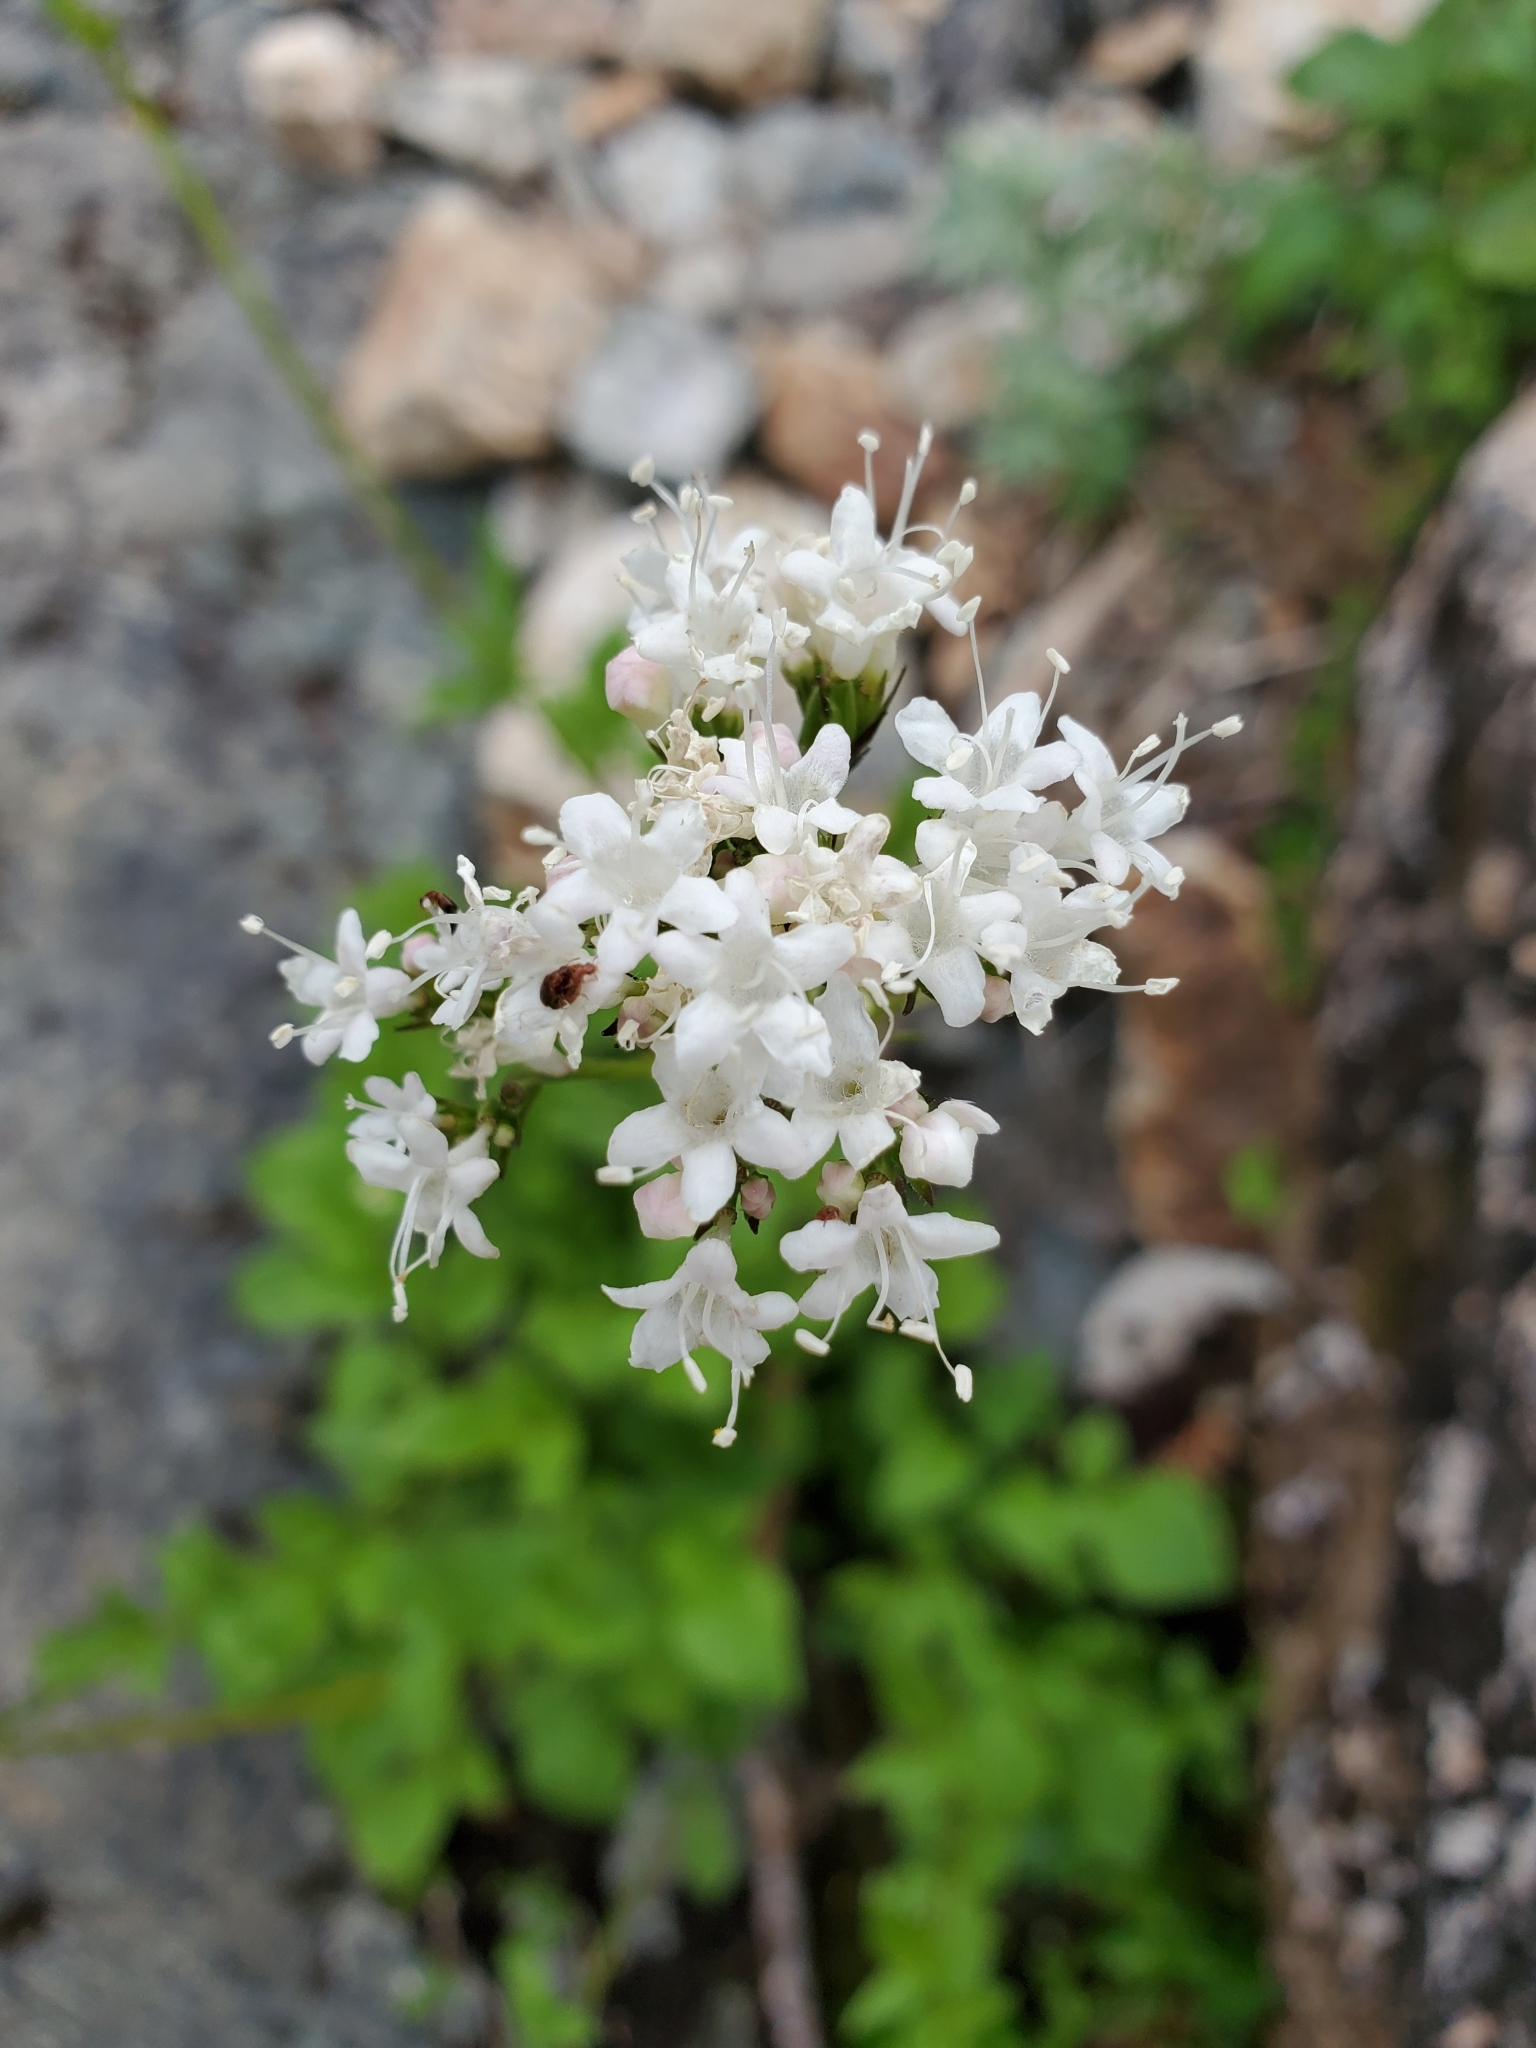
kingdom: Plantae
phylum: Tracheophyta
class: Magnoliopsida
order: Dipsacales
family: Caprifoliaceae
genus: Valeriana
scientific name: Valeriana sitchensis
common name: Pacific valerian
